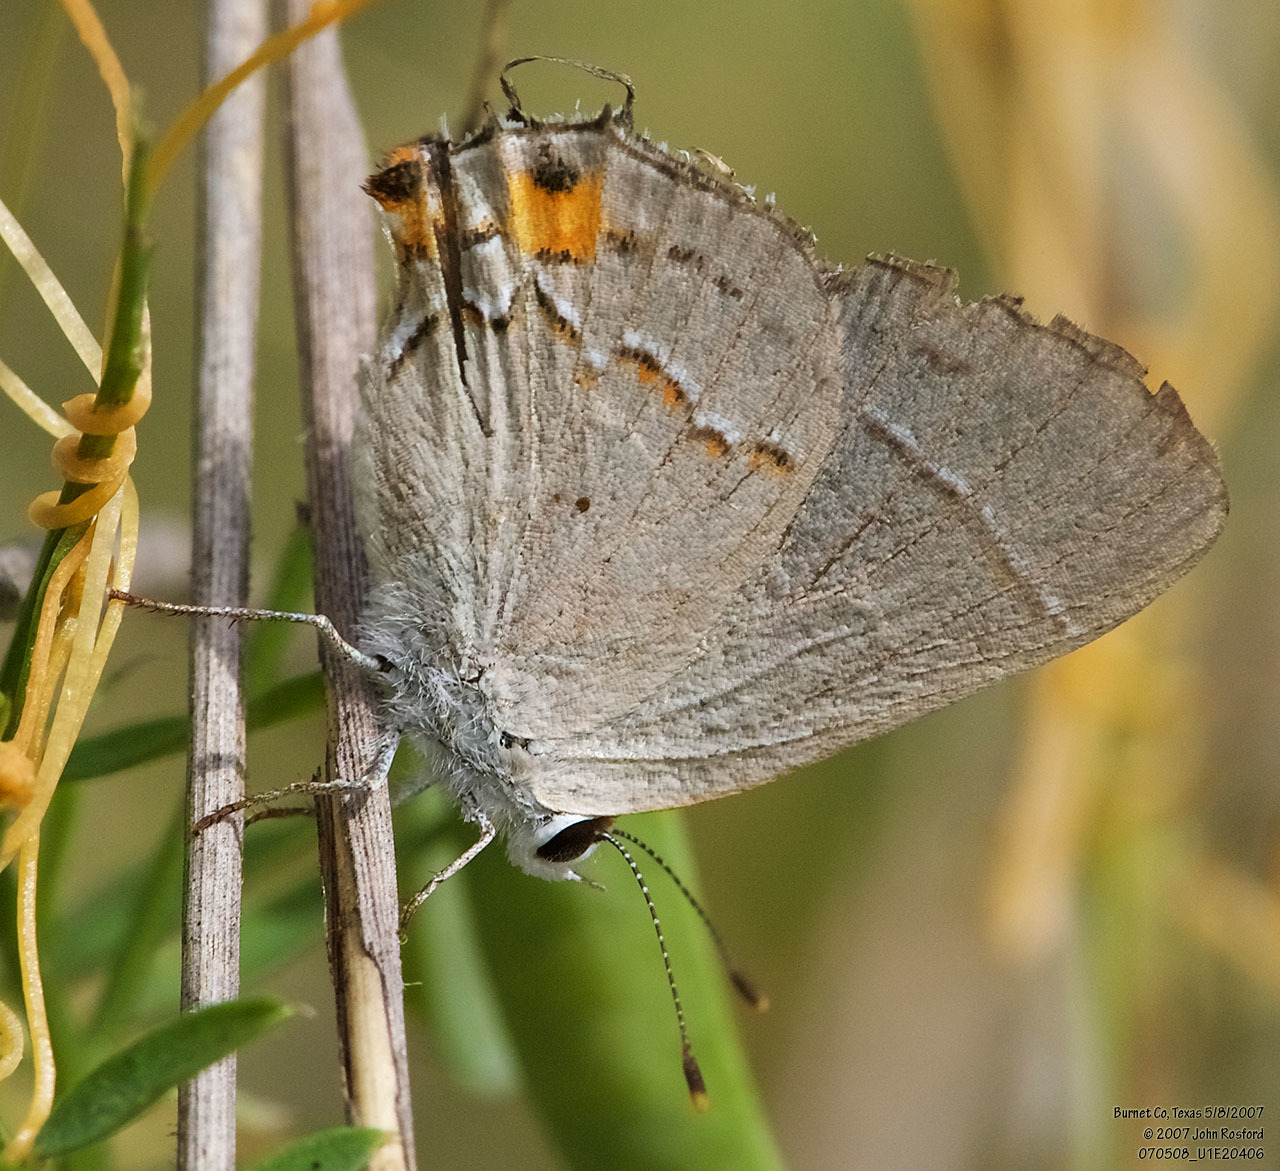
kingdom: Animalia
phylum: Arthropoda
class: Insecta
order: Lepidoptera
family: Lycaenidae
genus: Strymon
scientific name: Strymon melinus
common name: Gray hairstreak
